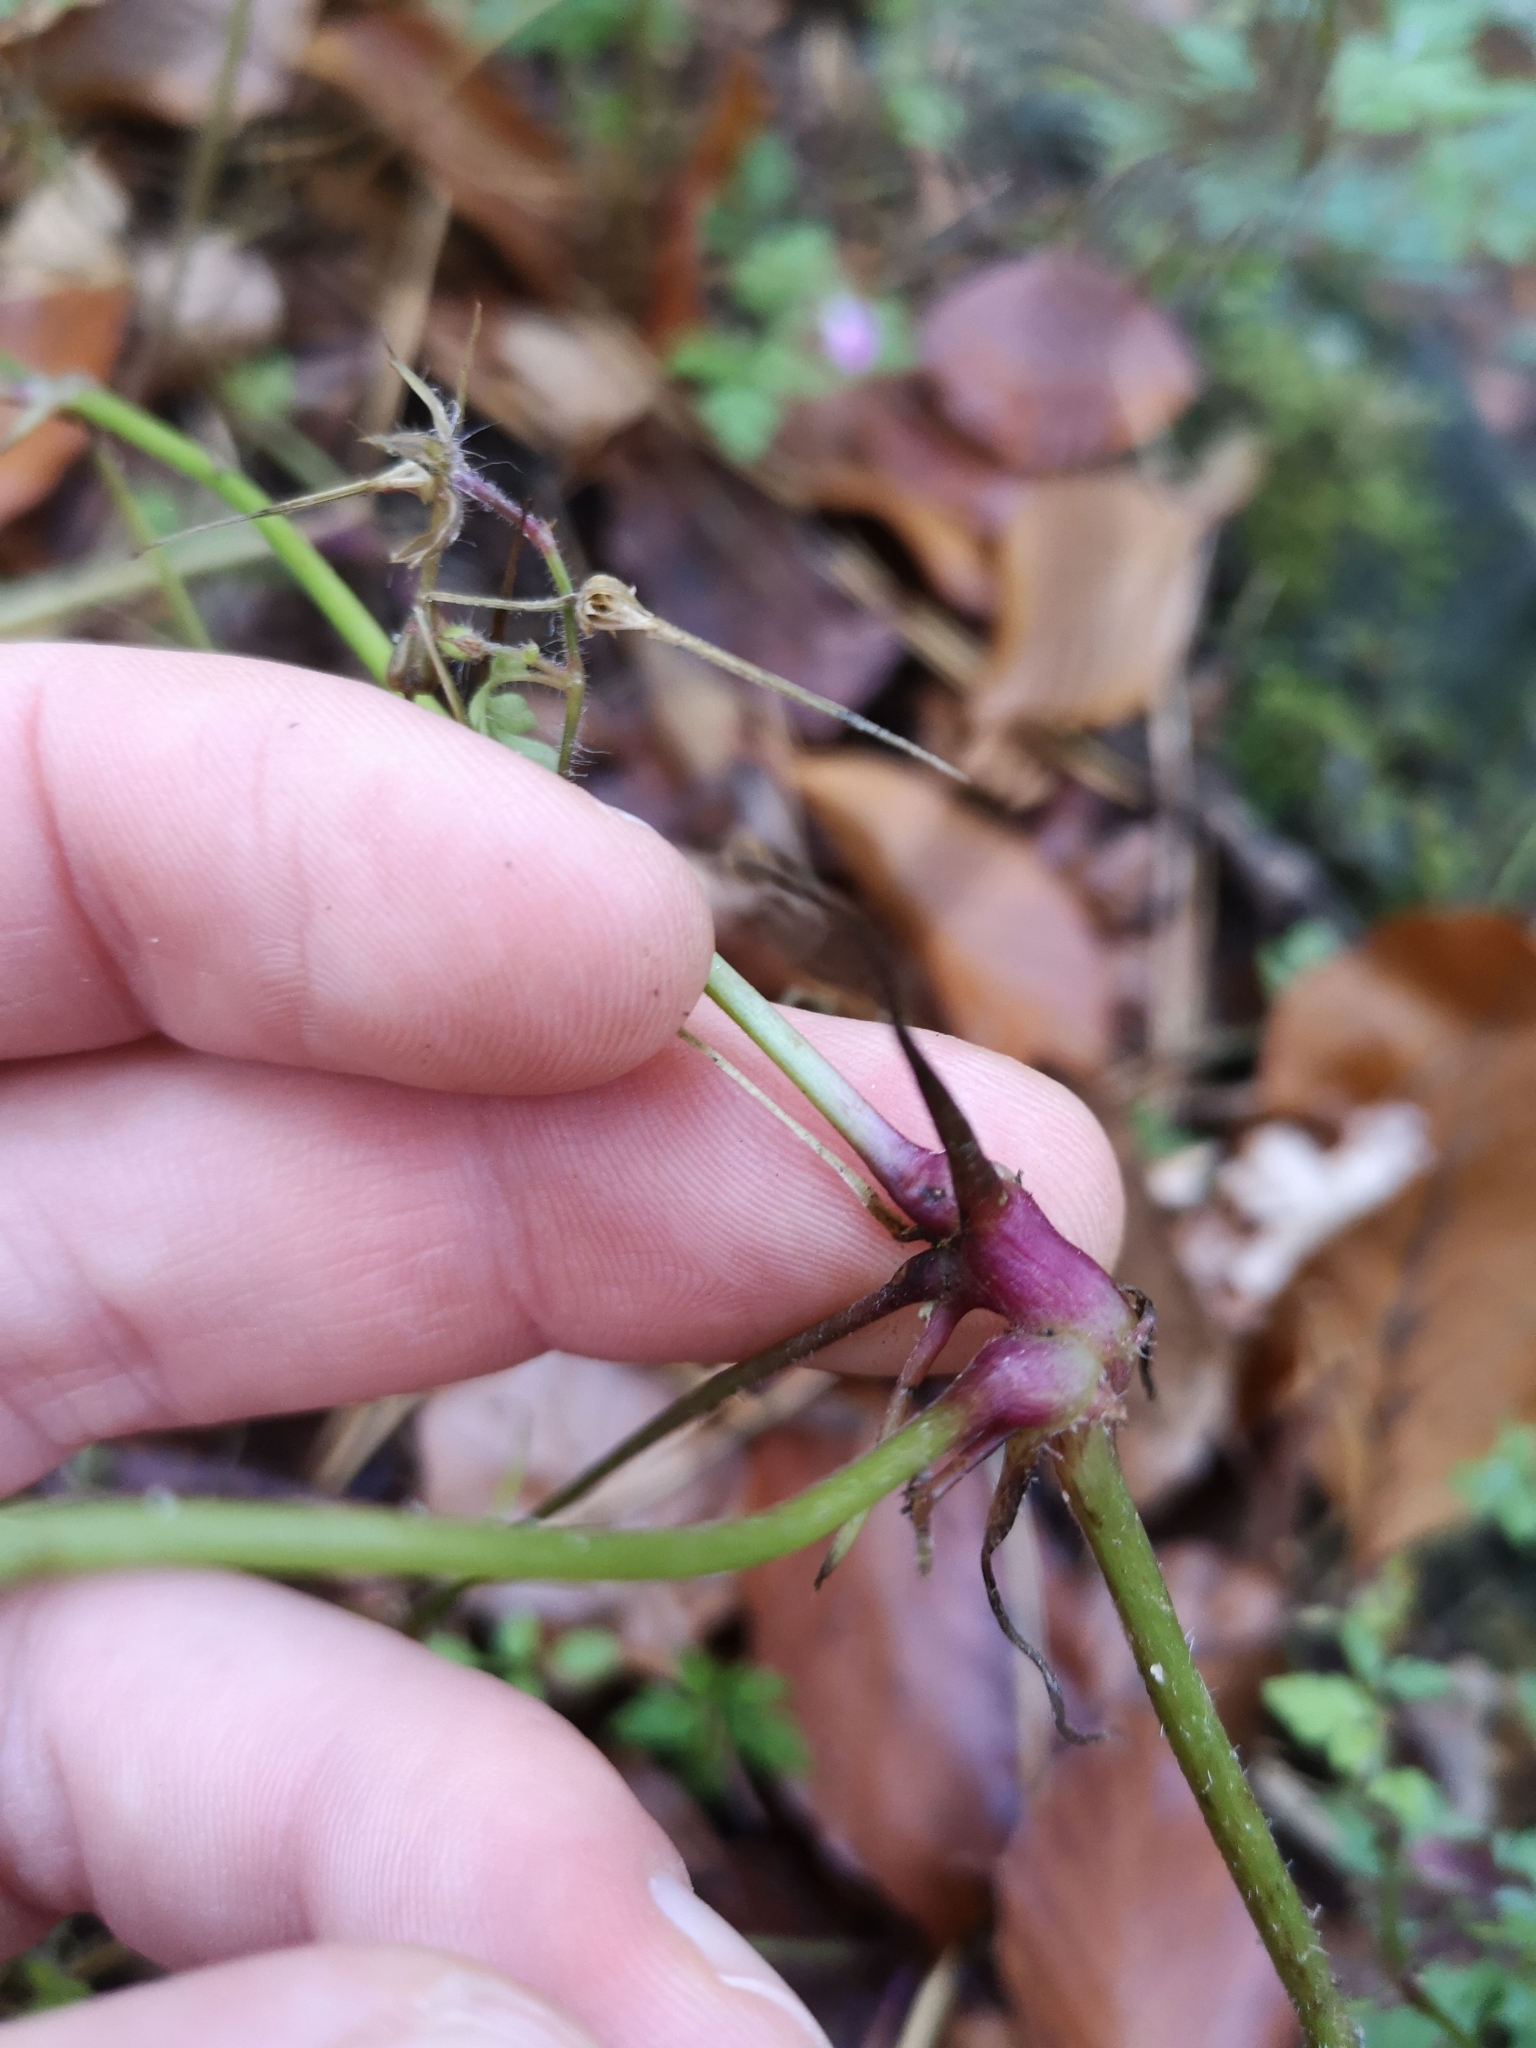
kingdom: Plantae
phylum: Tracheophyta
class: Magnoliopsida
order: Geraniales
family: Geraniaceae
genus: Geranium
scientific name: Geranium robertianum
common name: Herb-robert
